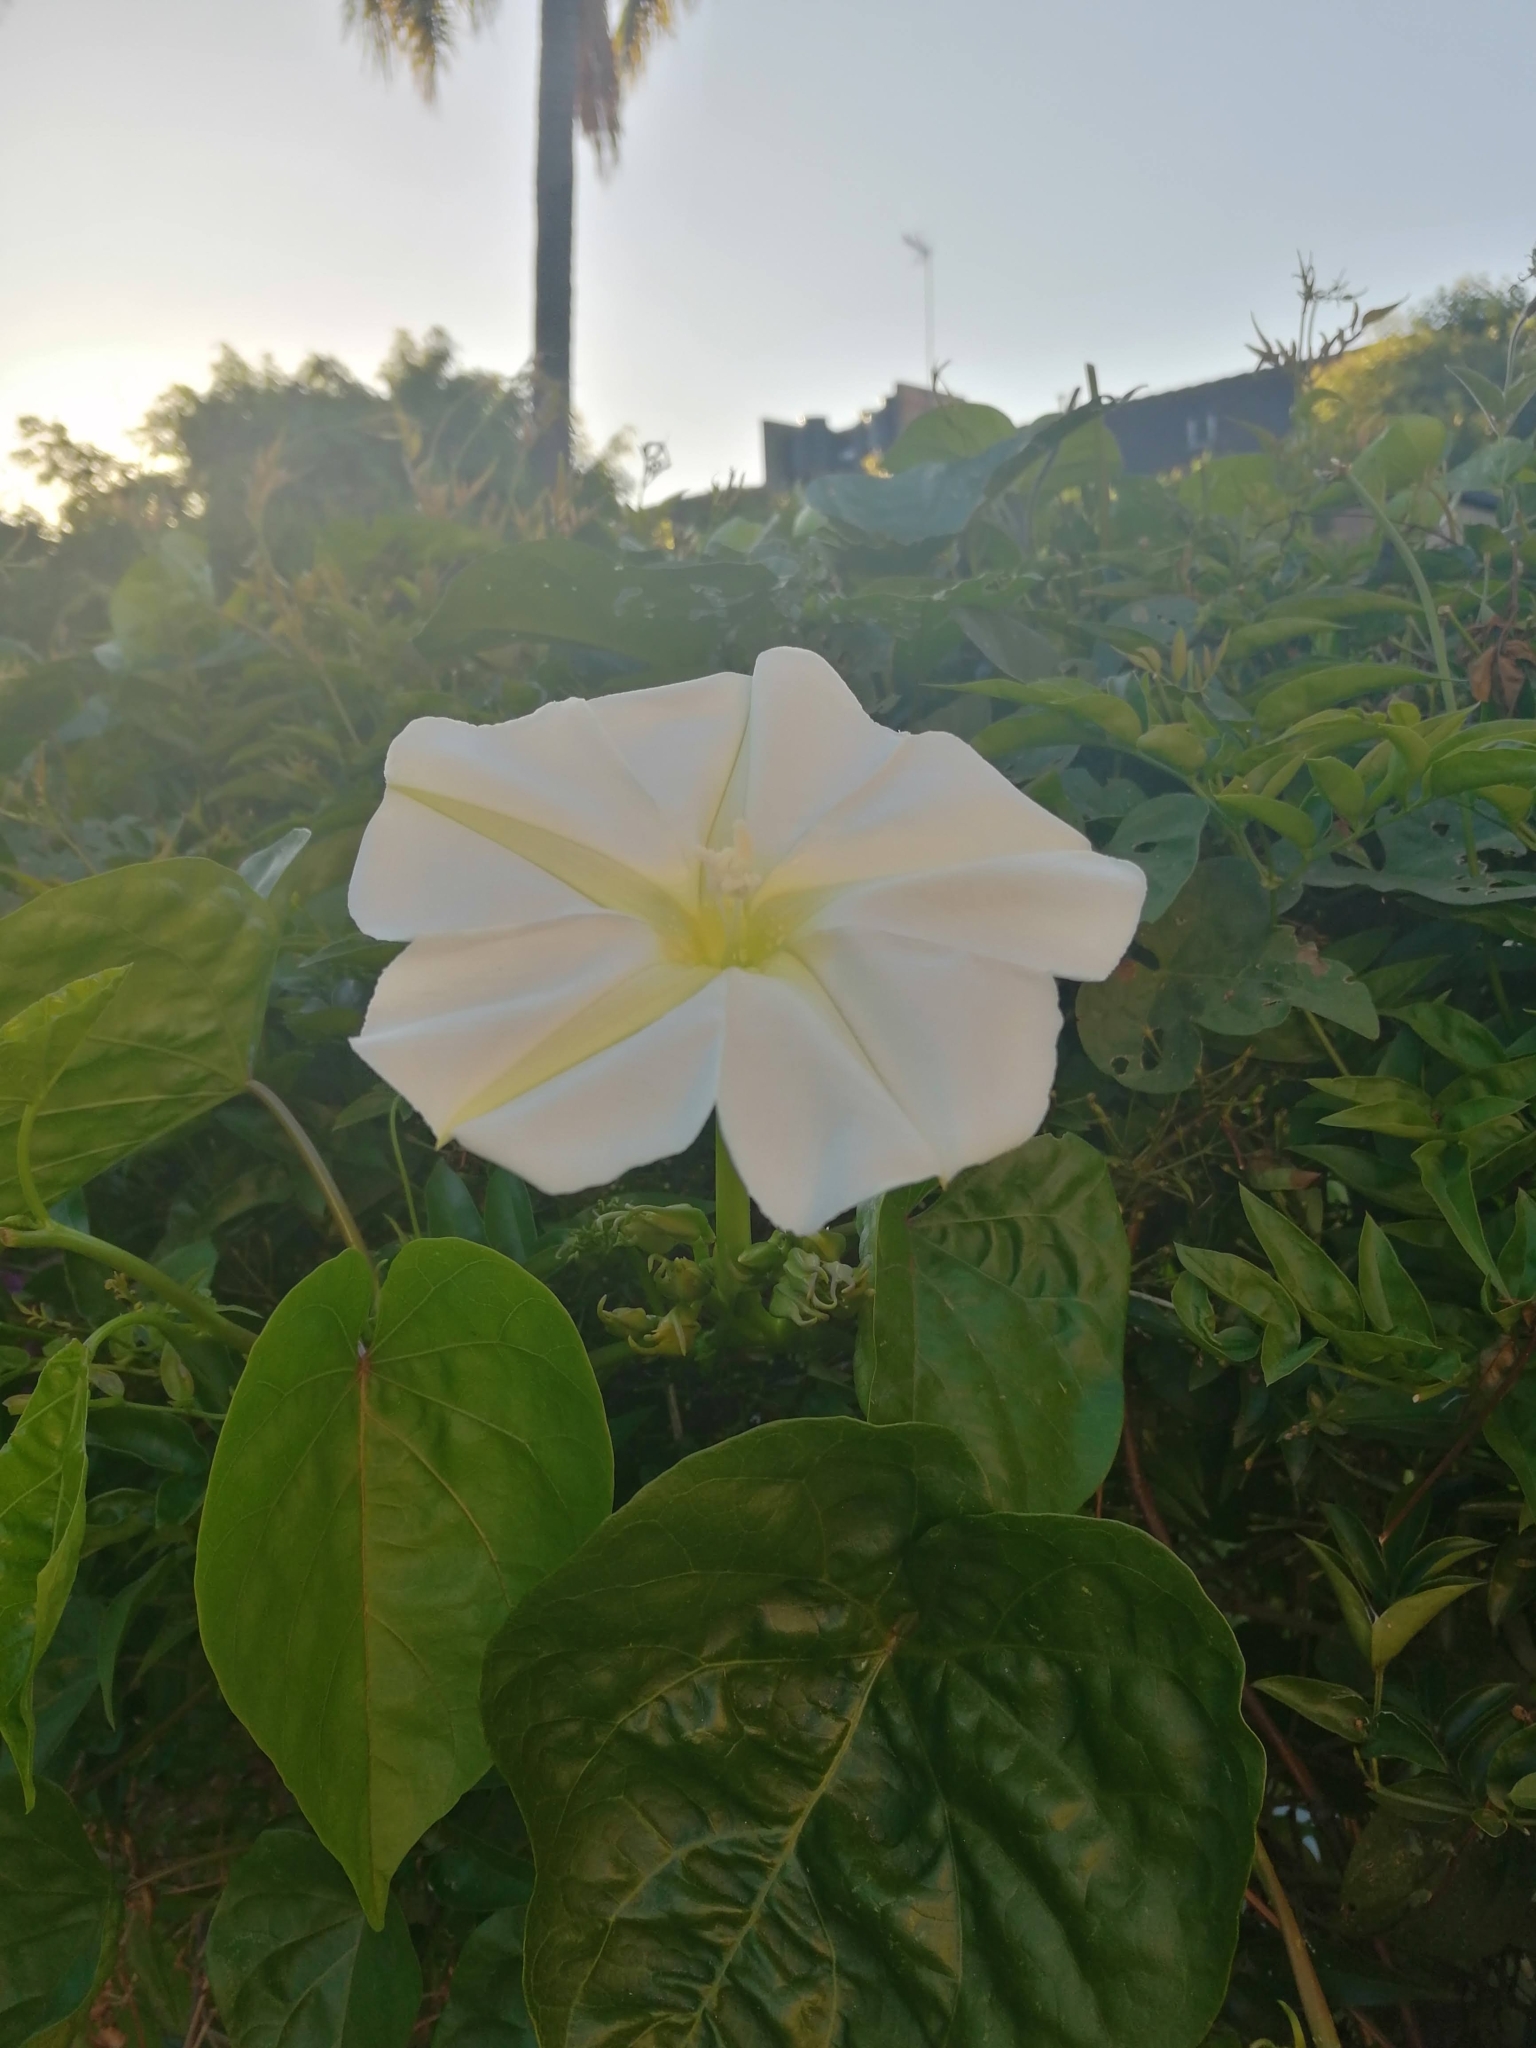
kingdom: Plantae
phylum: Tracheophyta
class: Magnoliopsida
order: Solanales
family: Convolvulaceae
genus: Ipomoea
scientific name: Ipomoea alba
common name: Moonflower
